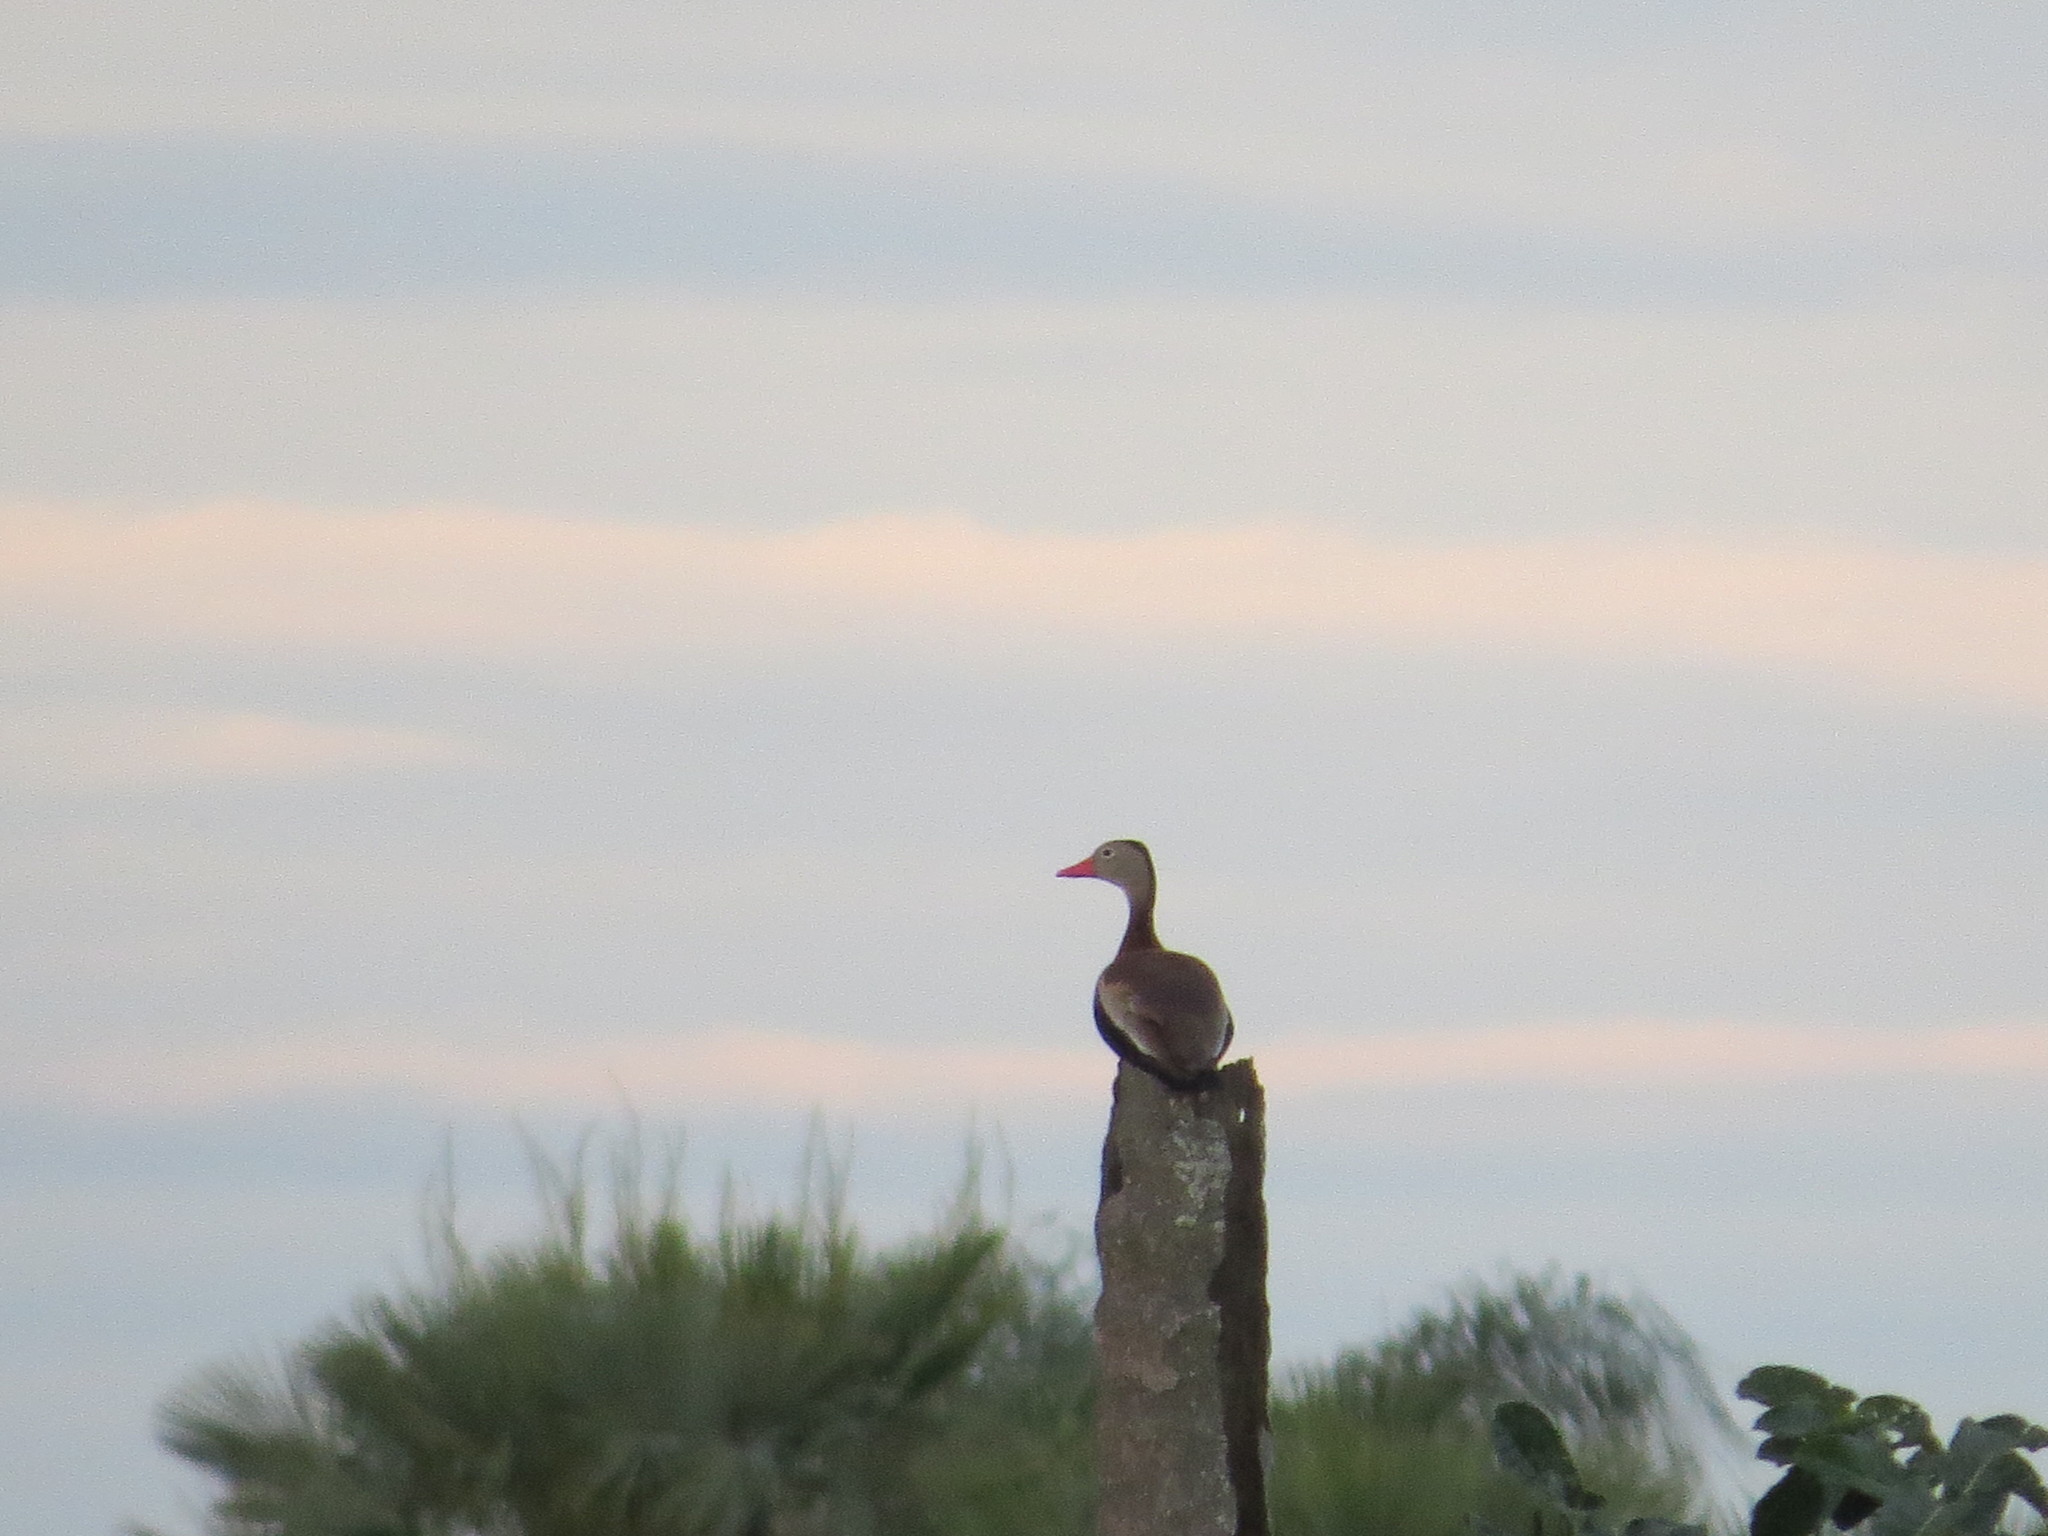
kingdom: Animalia
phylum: Chordata
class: Aves
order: Anseriformes
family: Anatidae
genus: Dendrocygna
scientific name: Dendrocygna autumnalis
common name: Black-bellied whistling duck
